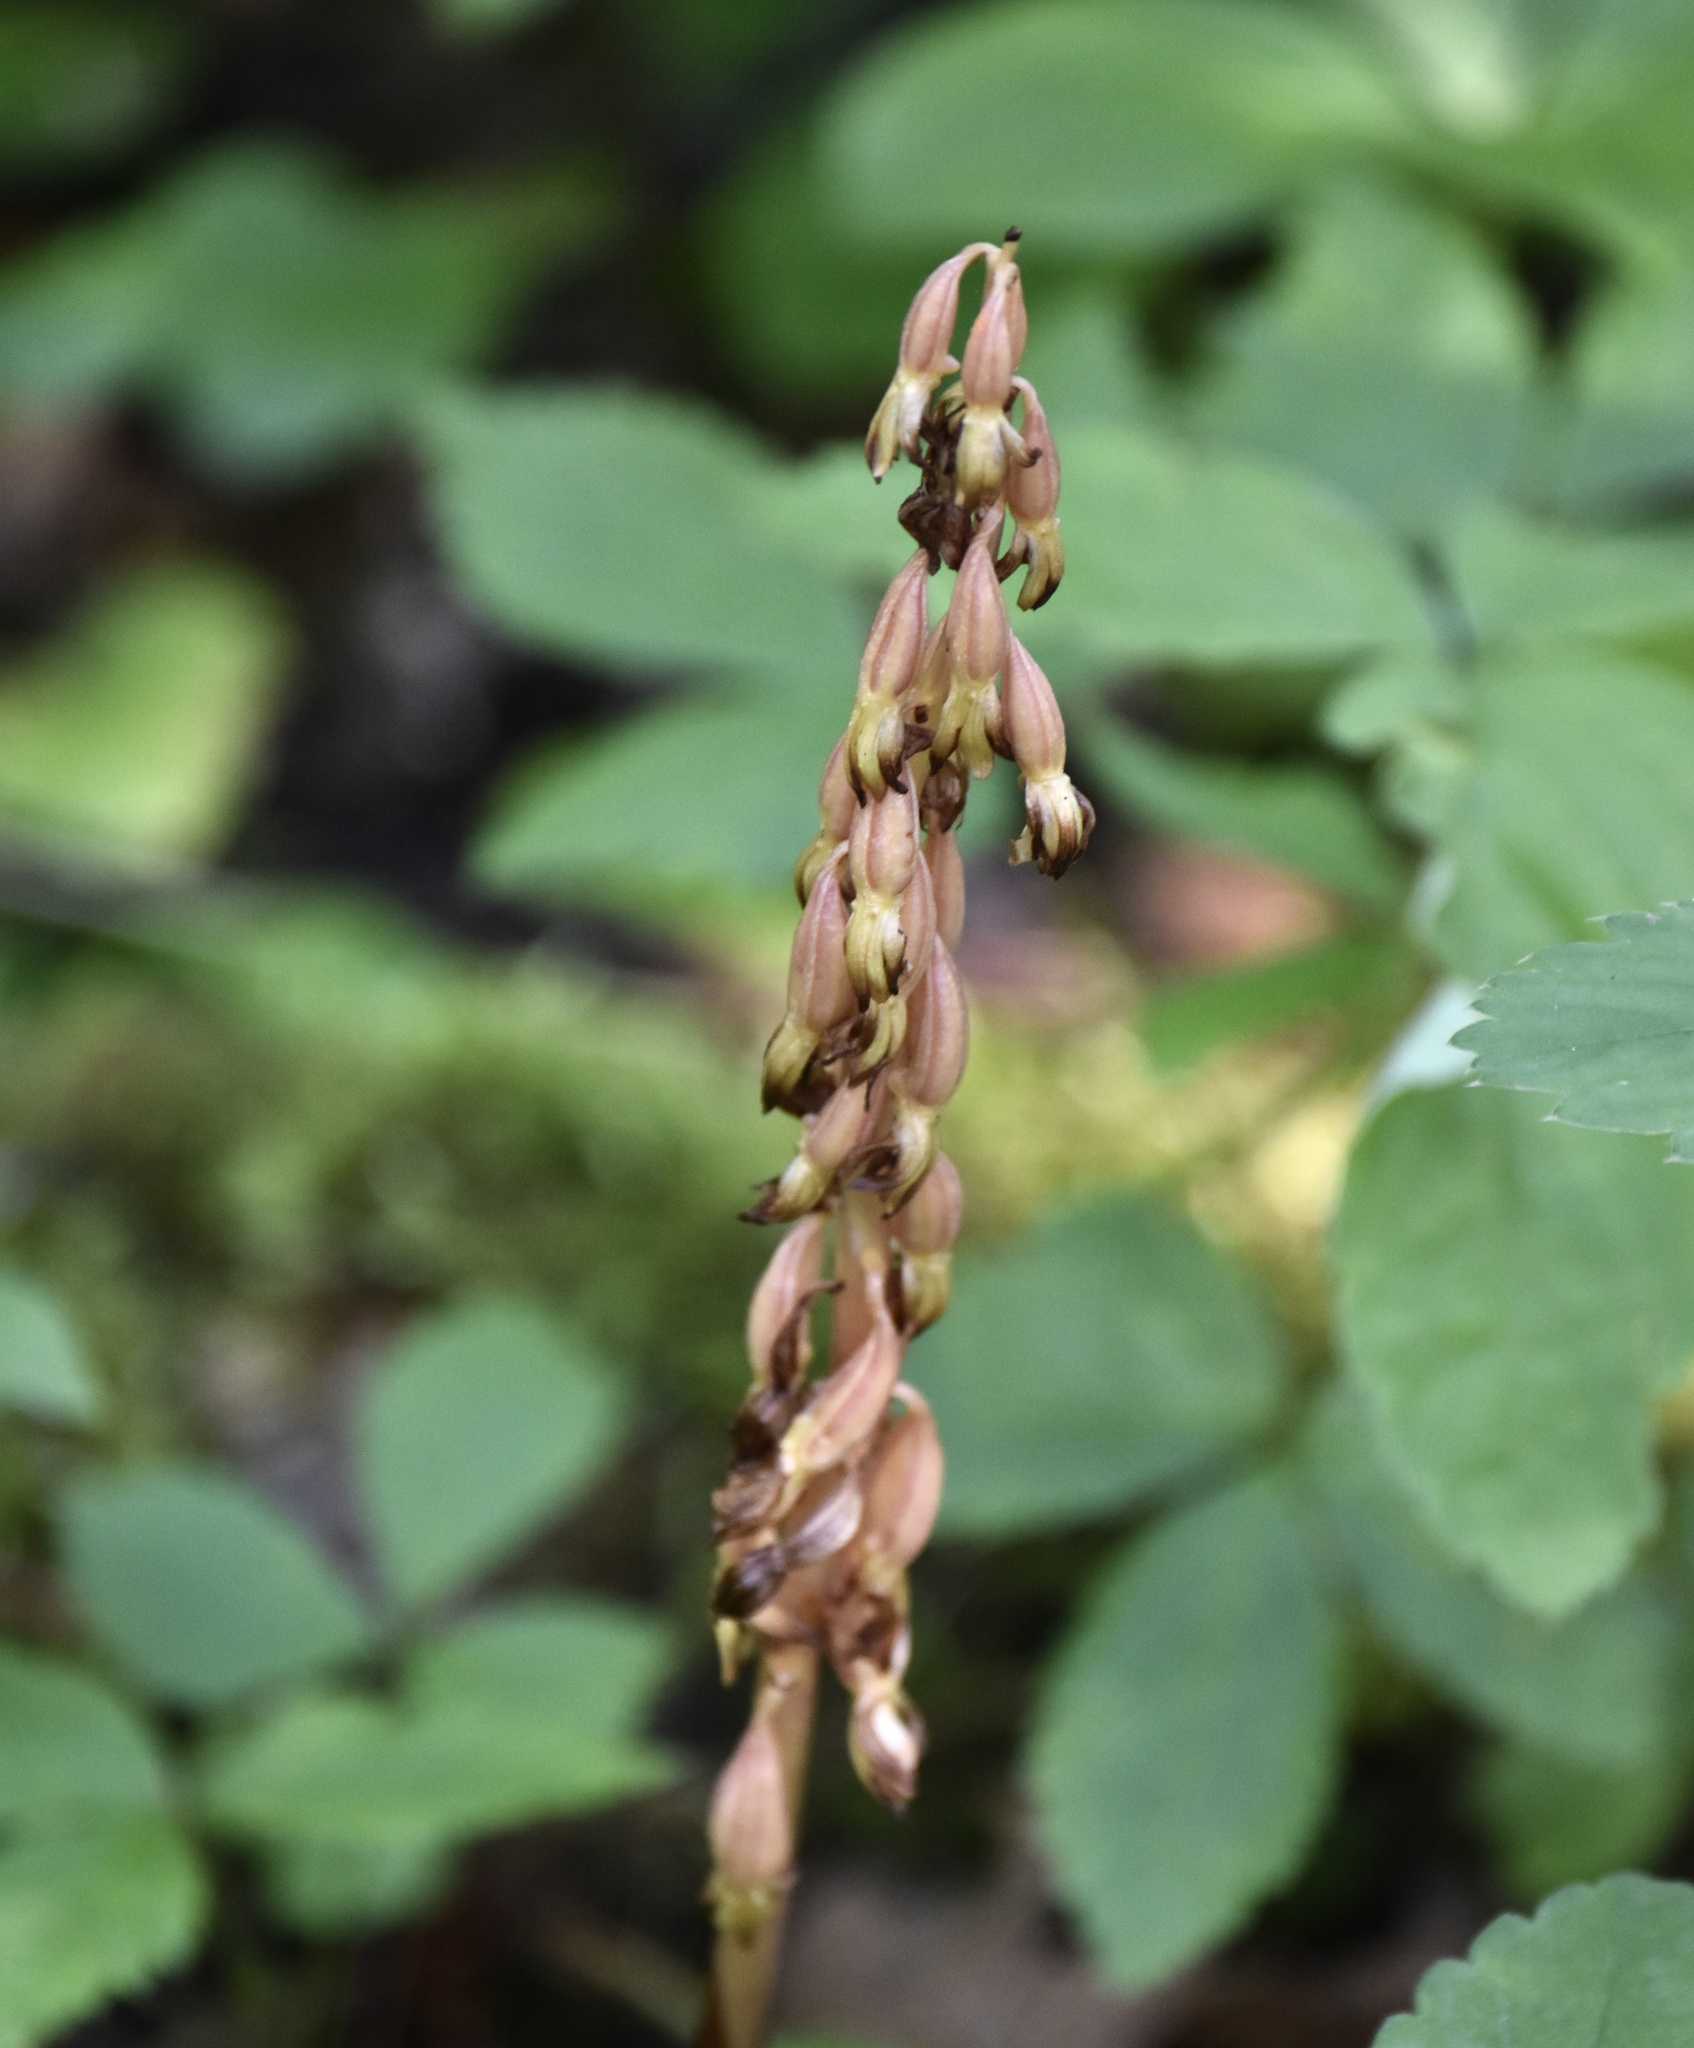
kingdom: Plantae
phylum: Tracheophyta
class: Liliopsida
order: Asparagales
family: Orchidaceae
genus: Corallorhiza
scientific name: Corallorhiza maculata
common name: Spotted coralroot
